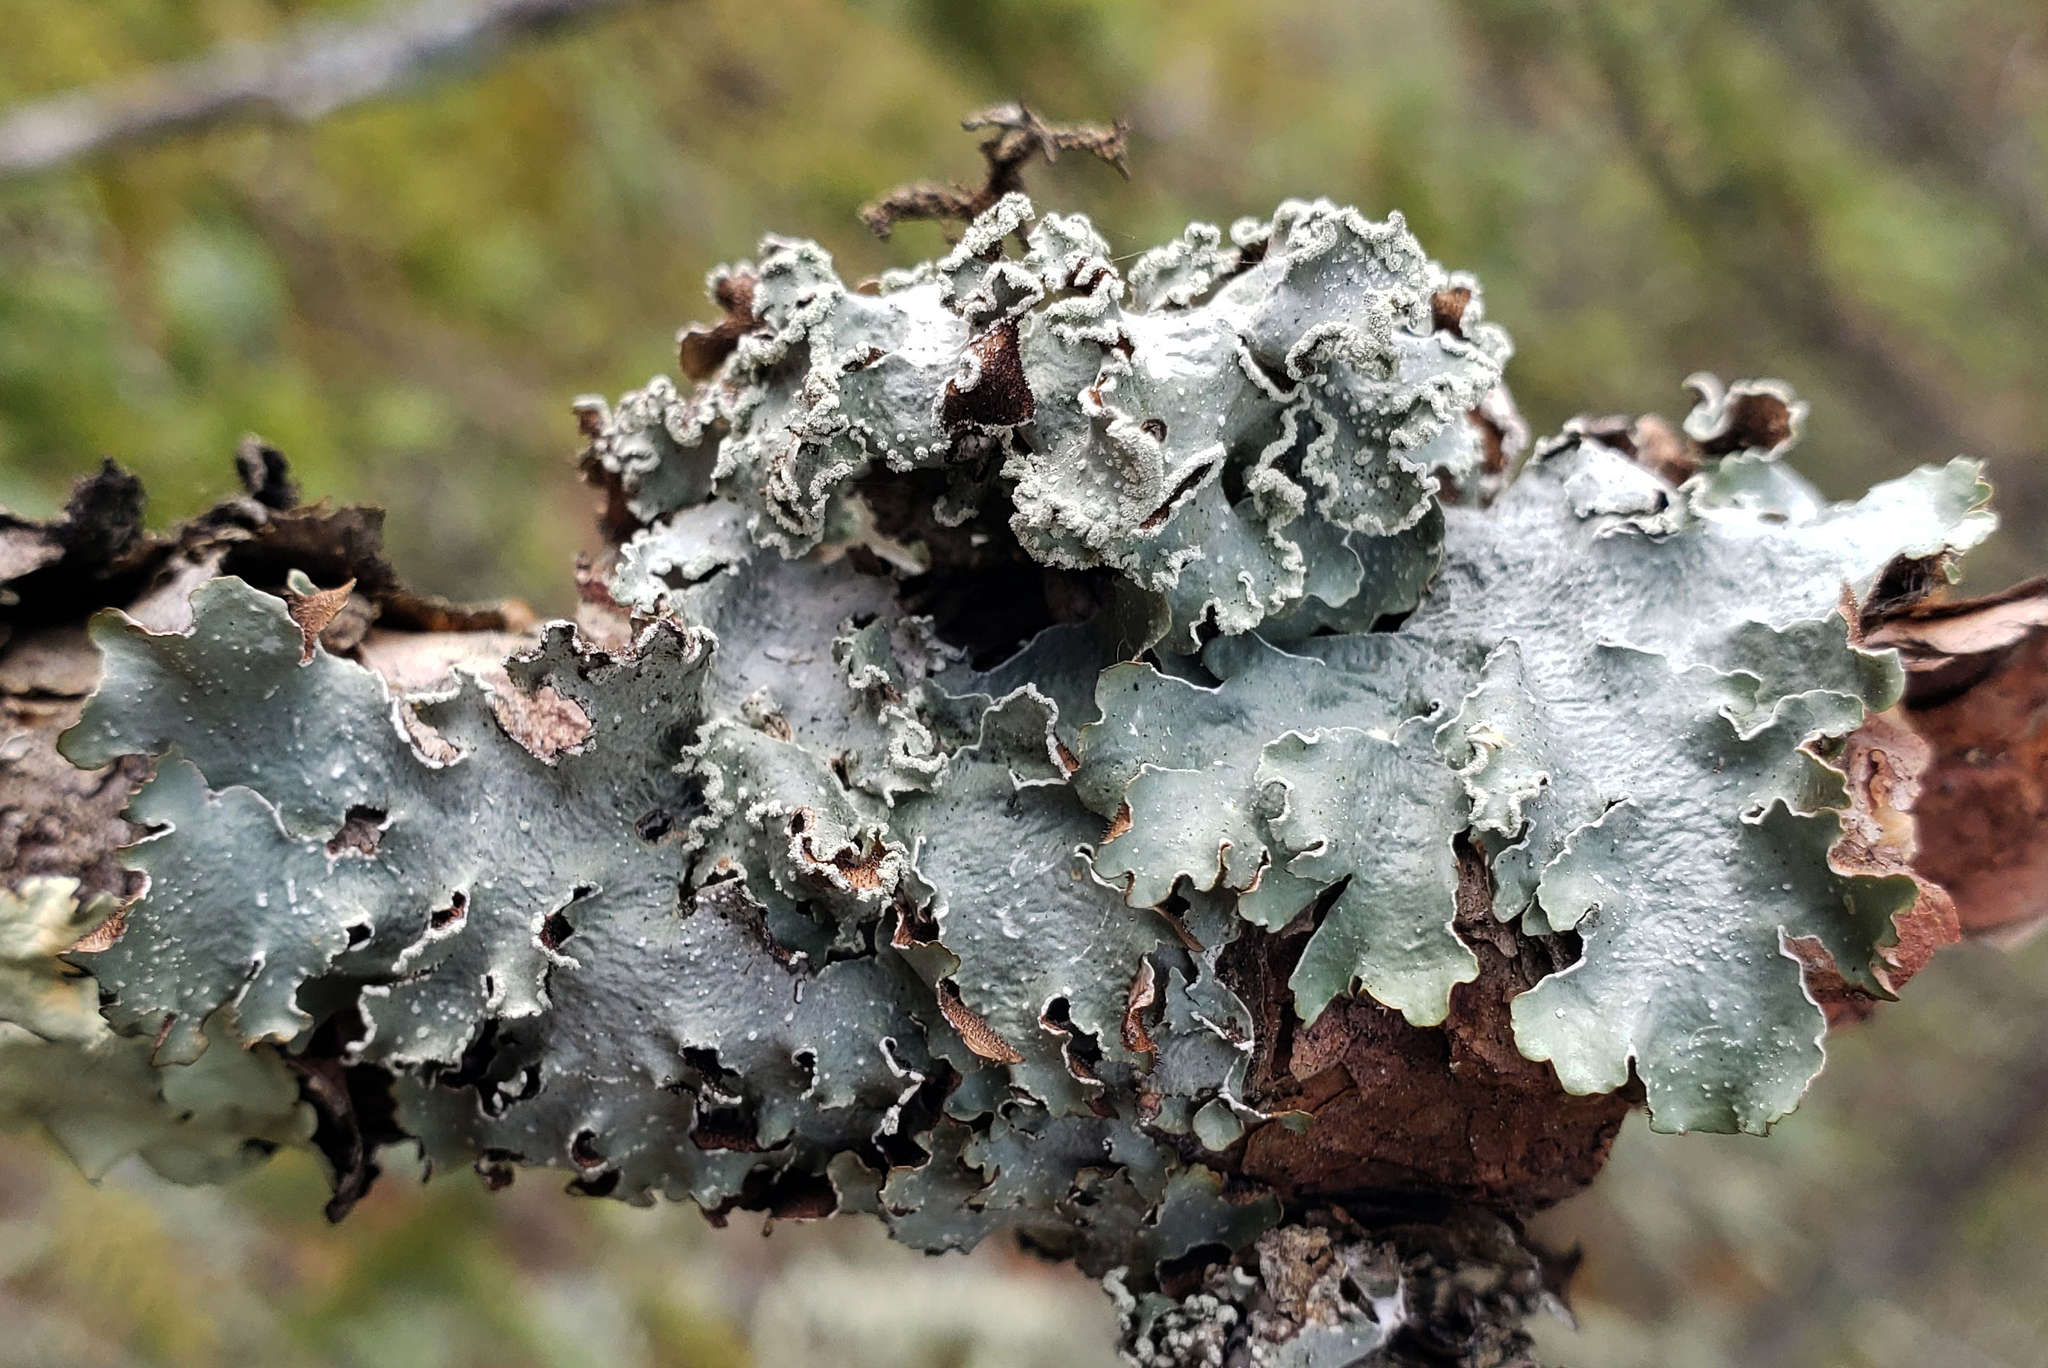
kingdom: Fungi
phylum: Ascomycota
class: Lecanoromycetes
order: Lecanorales
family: Parmeliaceae
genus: Punctelia
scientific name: Punctelia caseana
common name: Moondust speckled lichen
